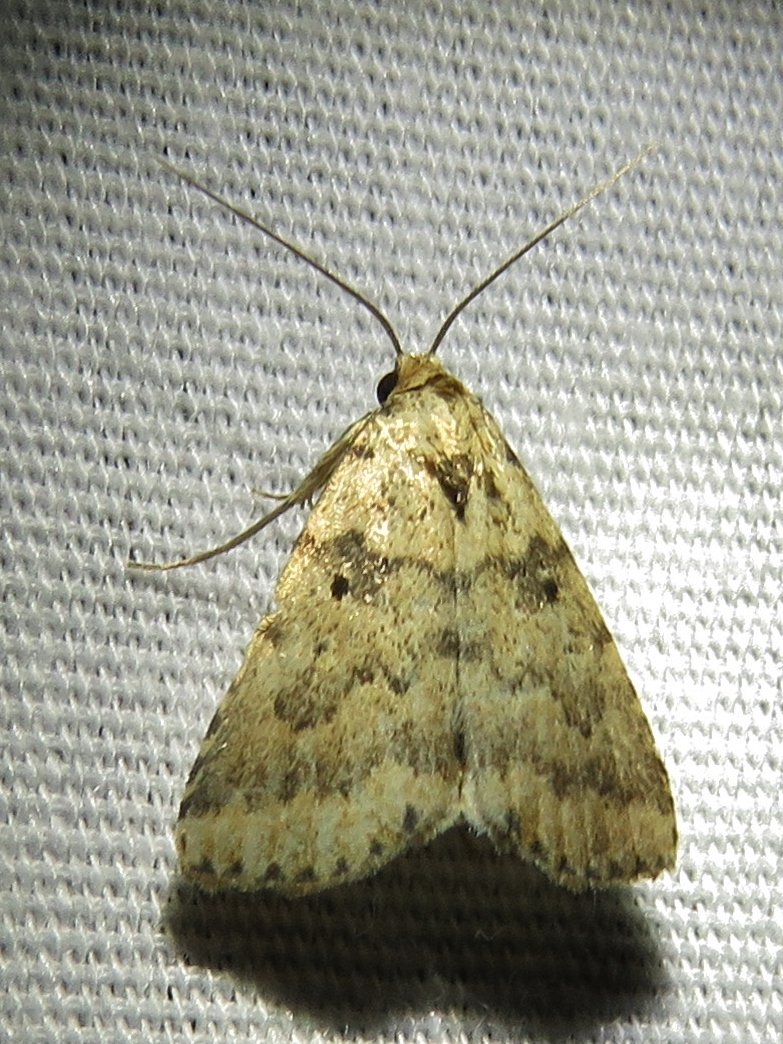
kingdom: Animalia
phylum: Arthropoda
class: Insecta
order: Lepidoptera
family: Erebidae
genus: Arugisa
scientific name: Arugisa lutea
